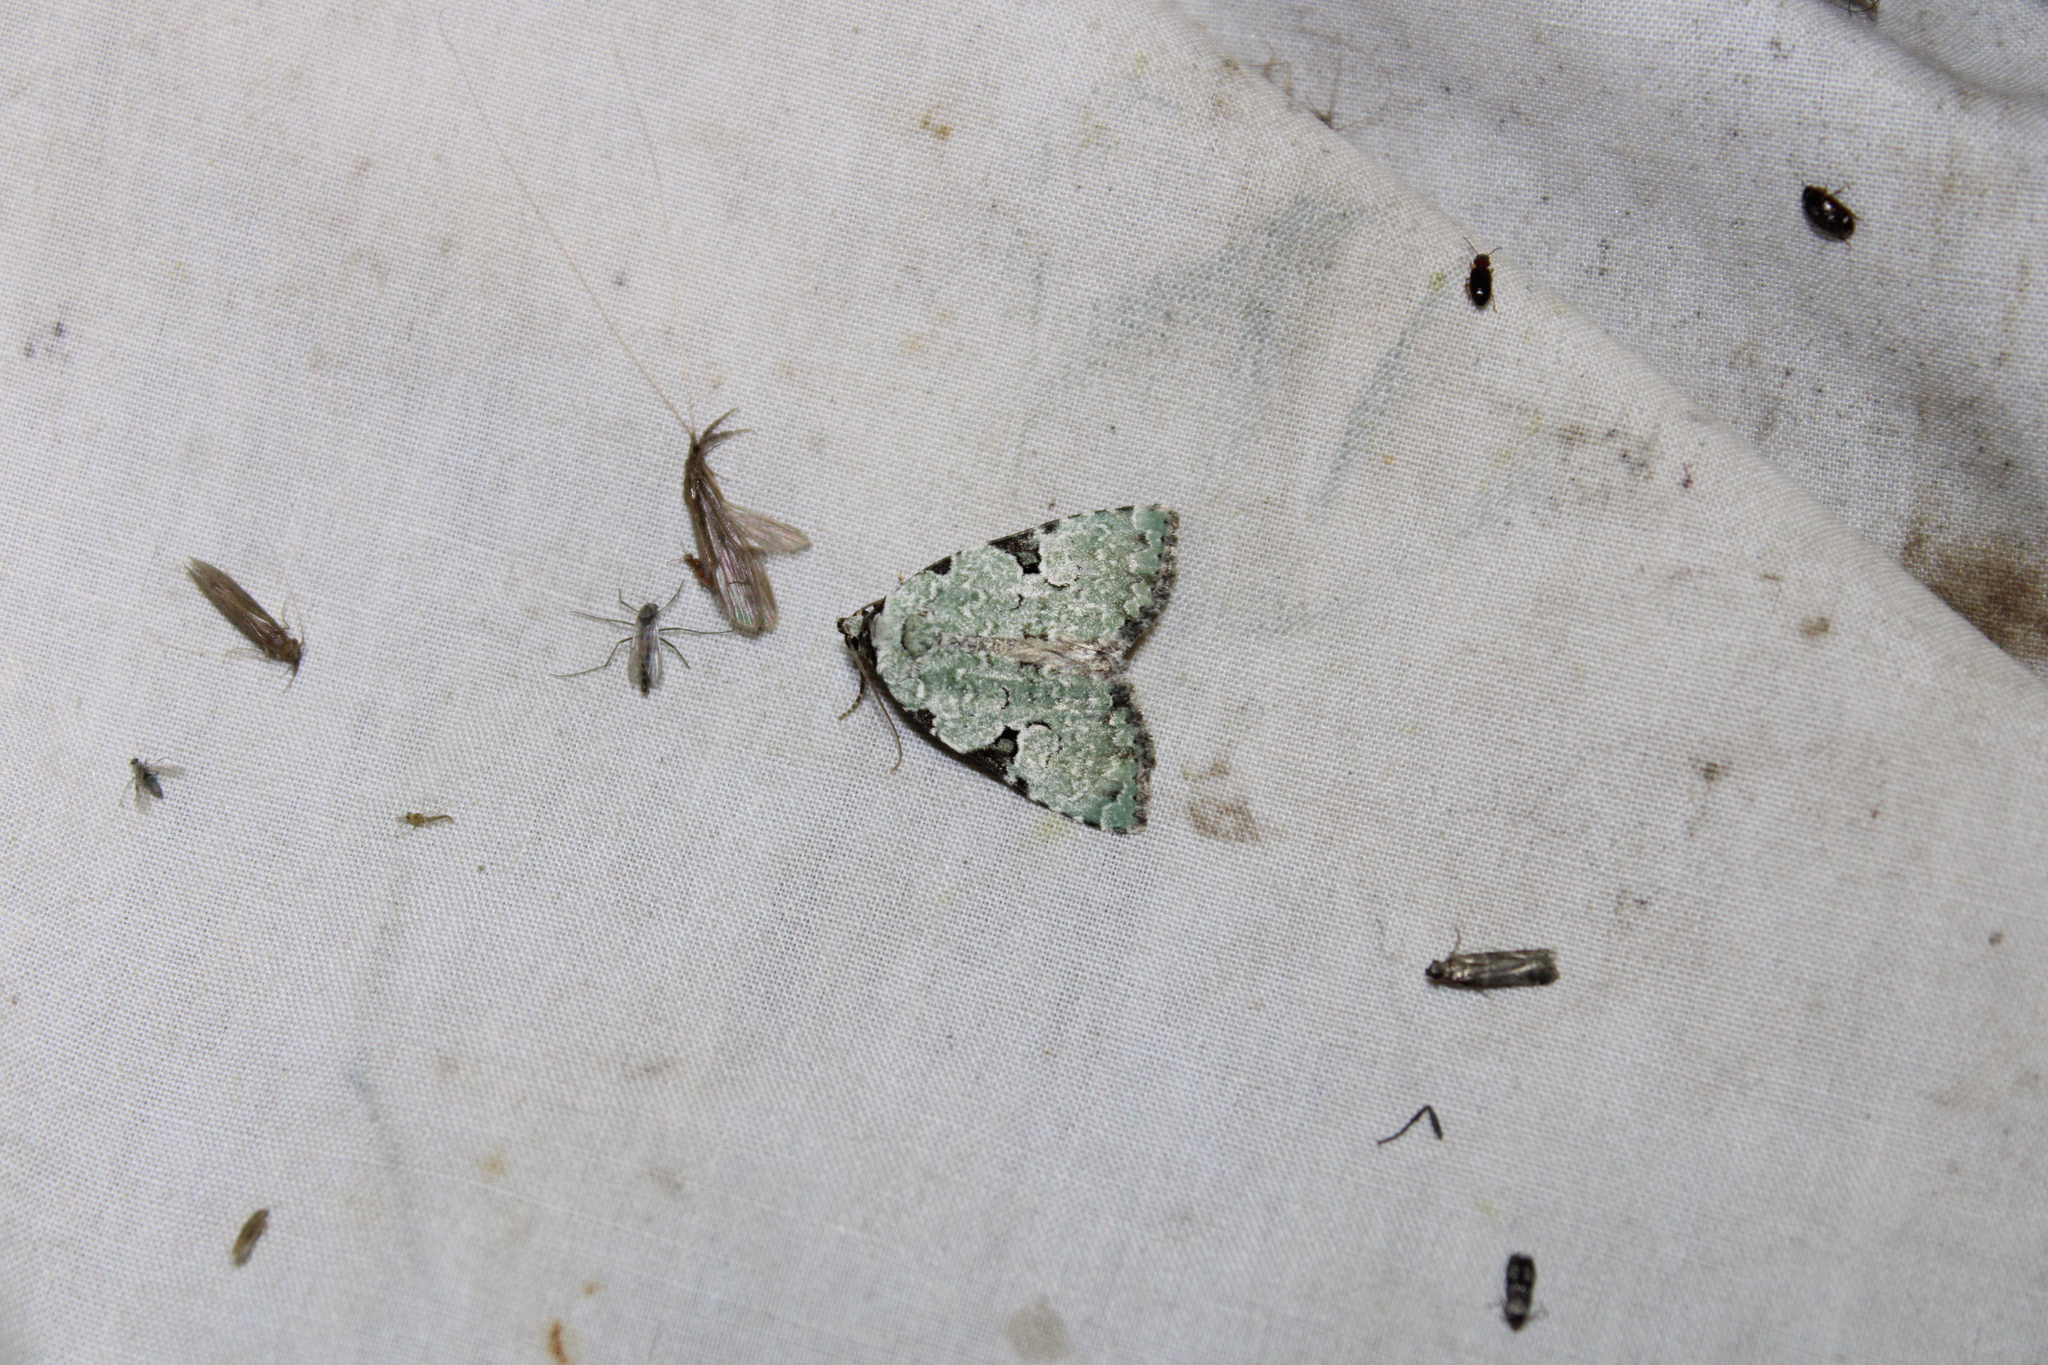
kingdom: Animalia
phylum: Arthropoda
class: Insecta
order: Lepidoptera
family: Noctuidae
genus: Leuconycta
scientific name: Leuconycta diphteroides
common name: Green leuconycta moth
